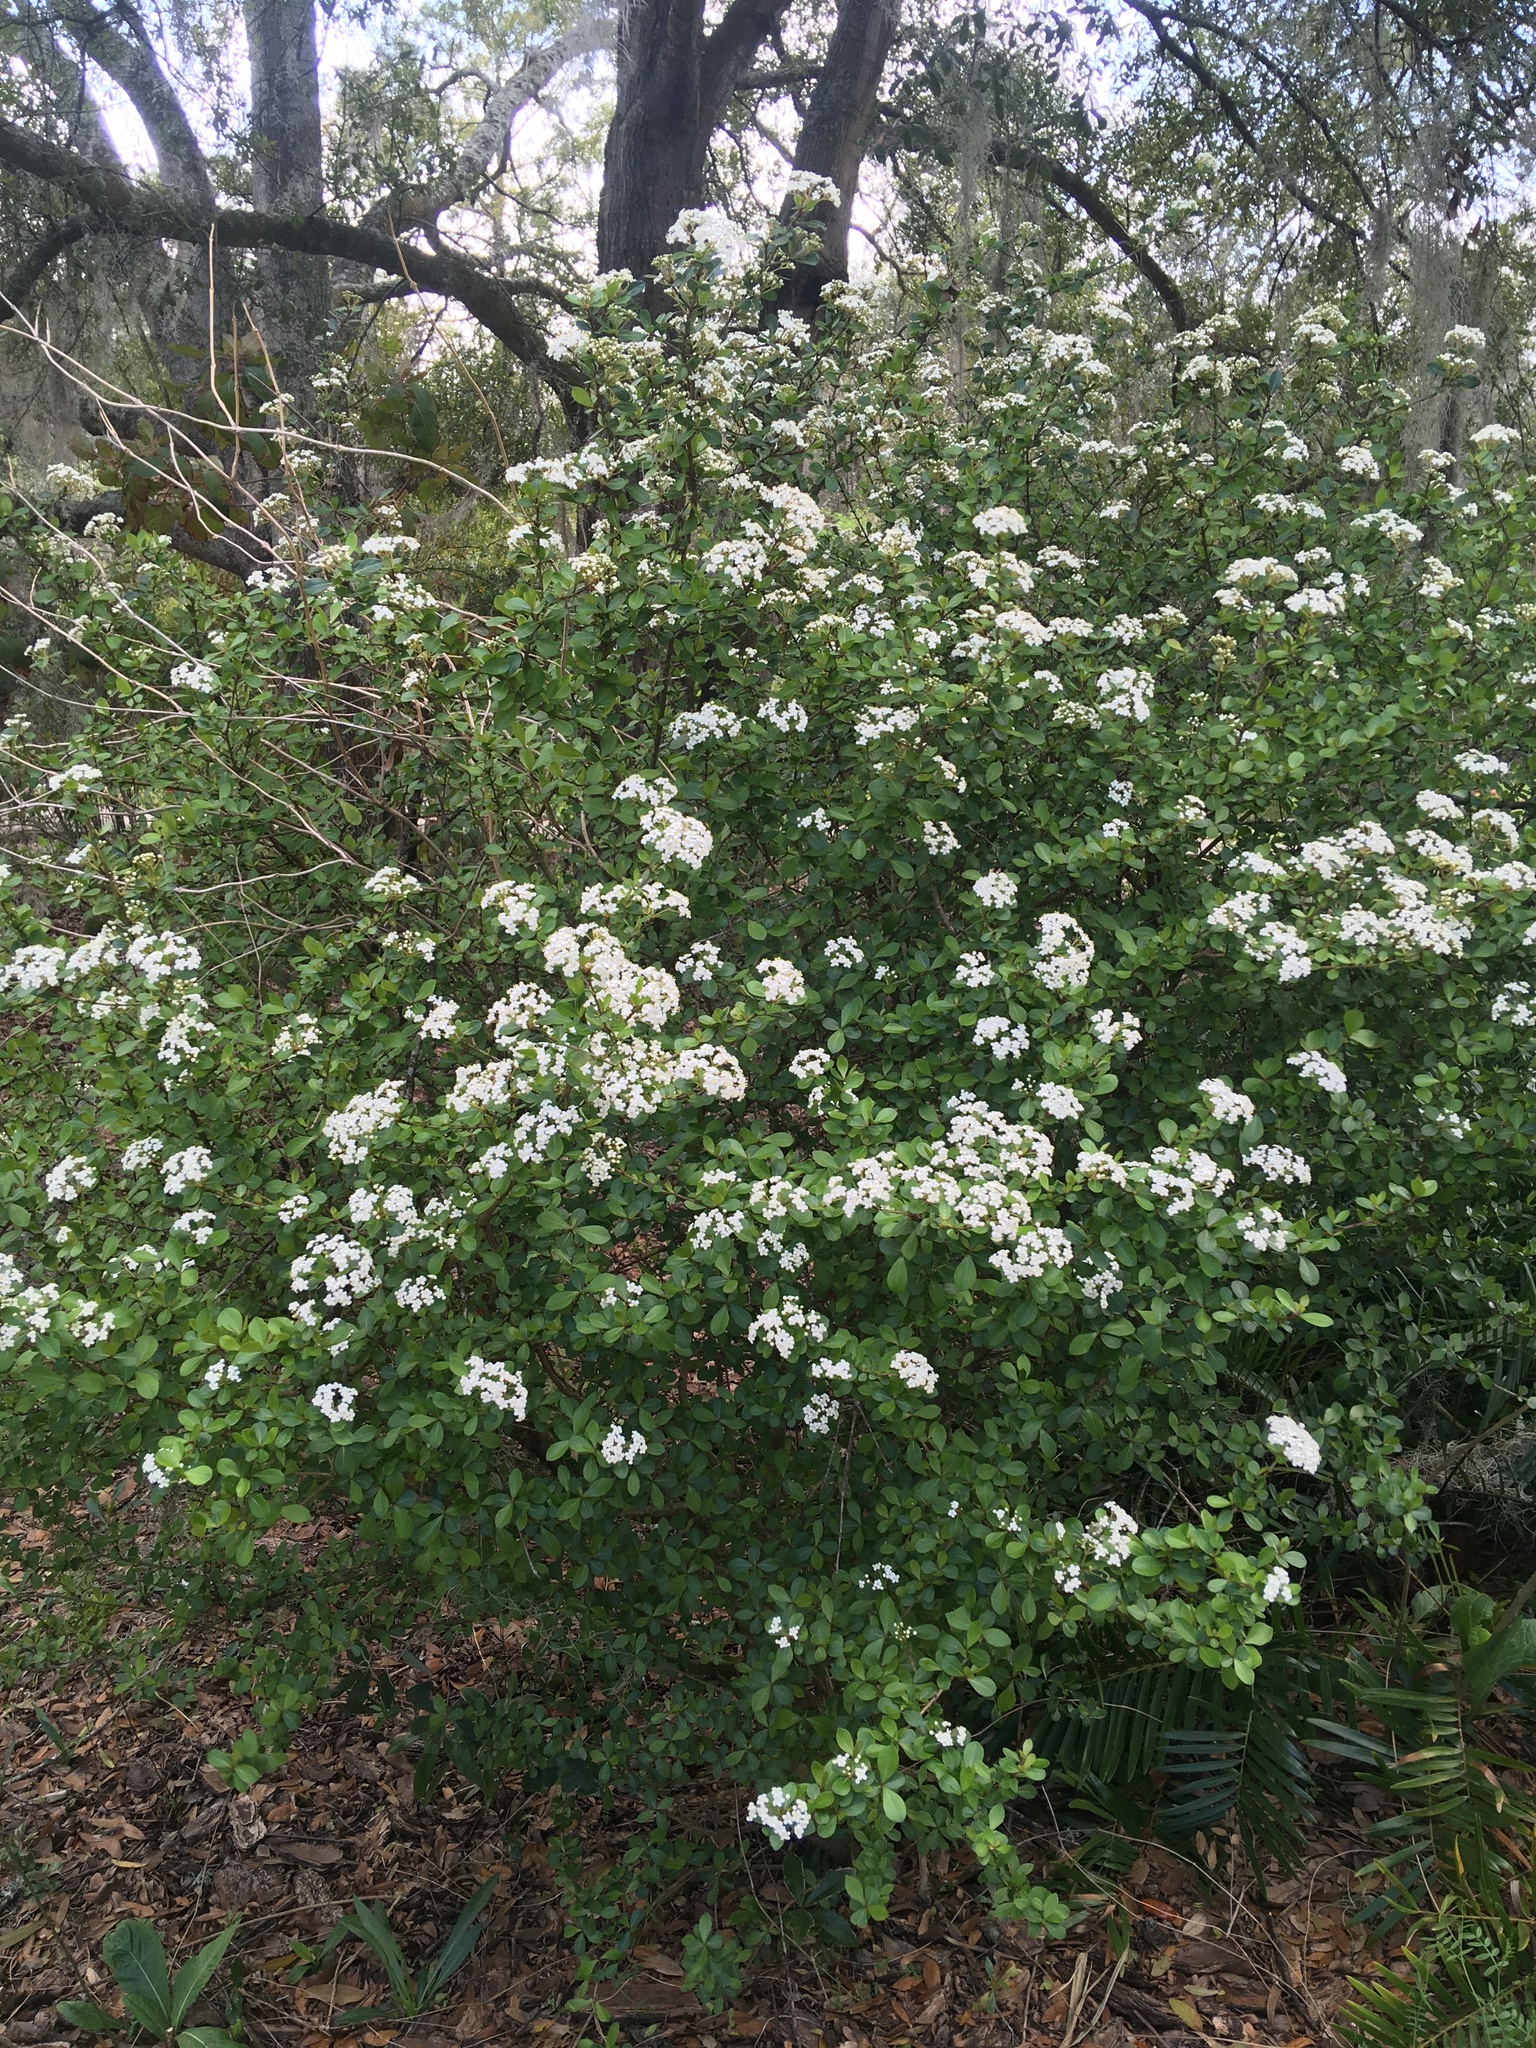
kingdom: Plantae
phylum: Tracheophyta
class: Magnoliopsida
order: Dipsacales
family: Viburnaceae
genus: Viburnum
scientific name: Viburnum obovatum
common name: Walter's viburnum
